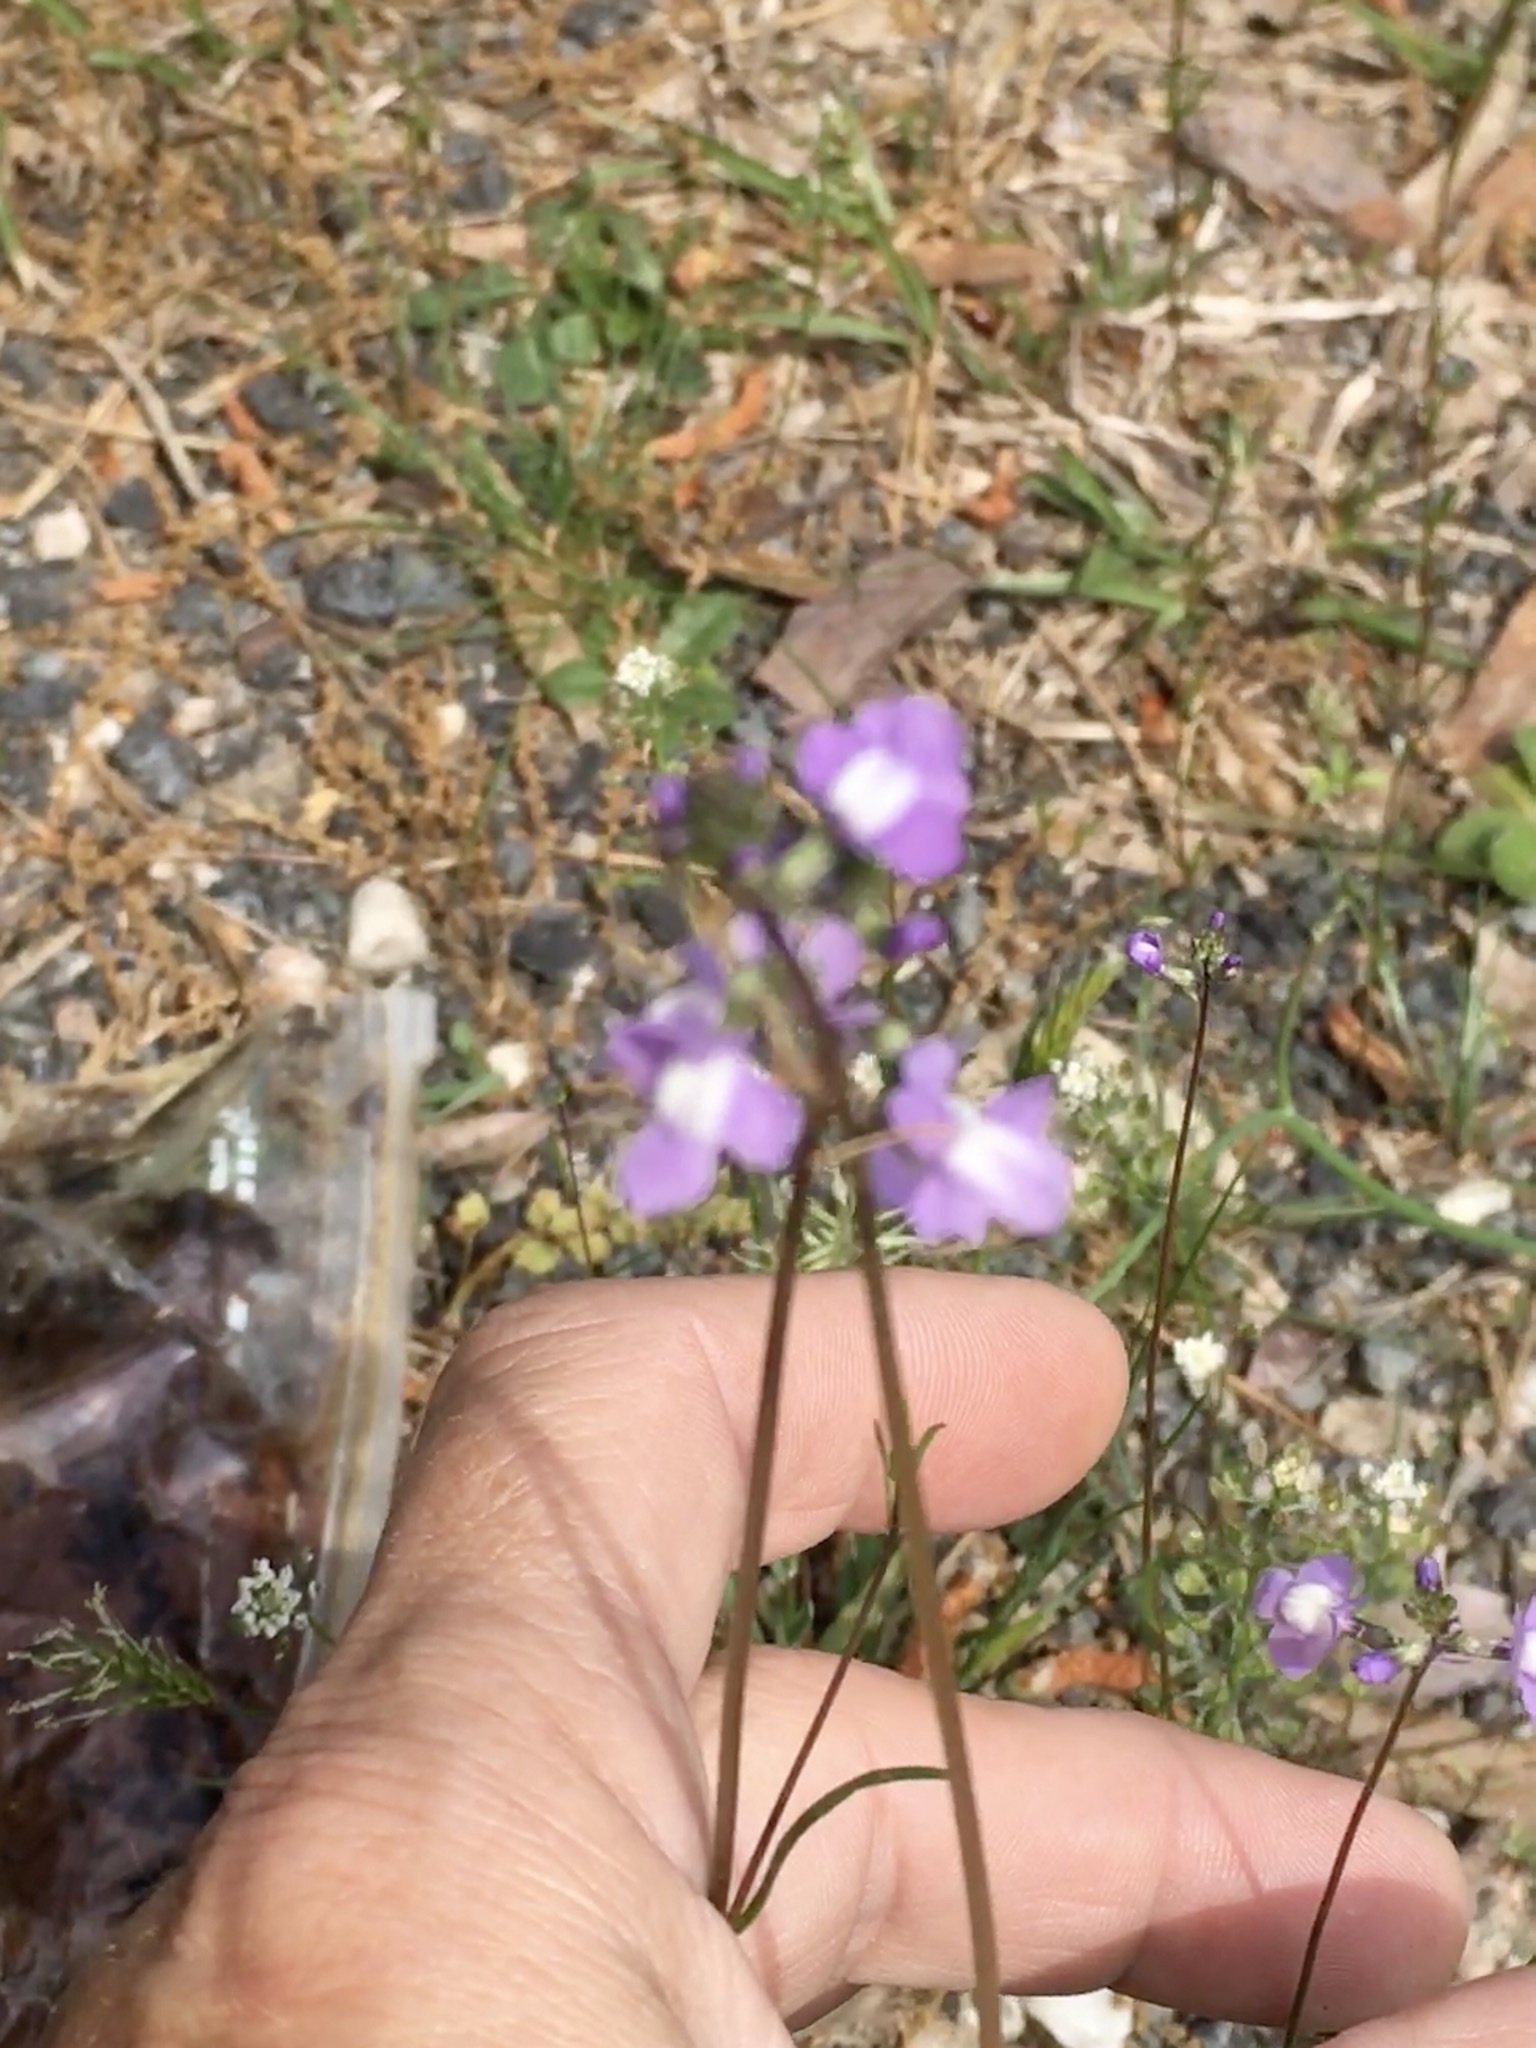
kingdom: Plantae
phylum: Tracheophyta
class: Magnoliopsida
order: Lamiales
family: Plantaginaceae
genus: Nuttallanthus
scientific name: Nuttallanthus canadensis
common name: Blue toadflax
